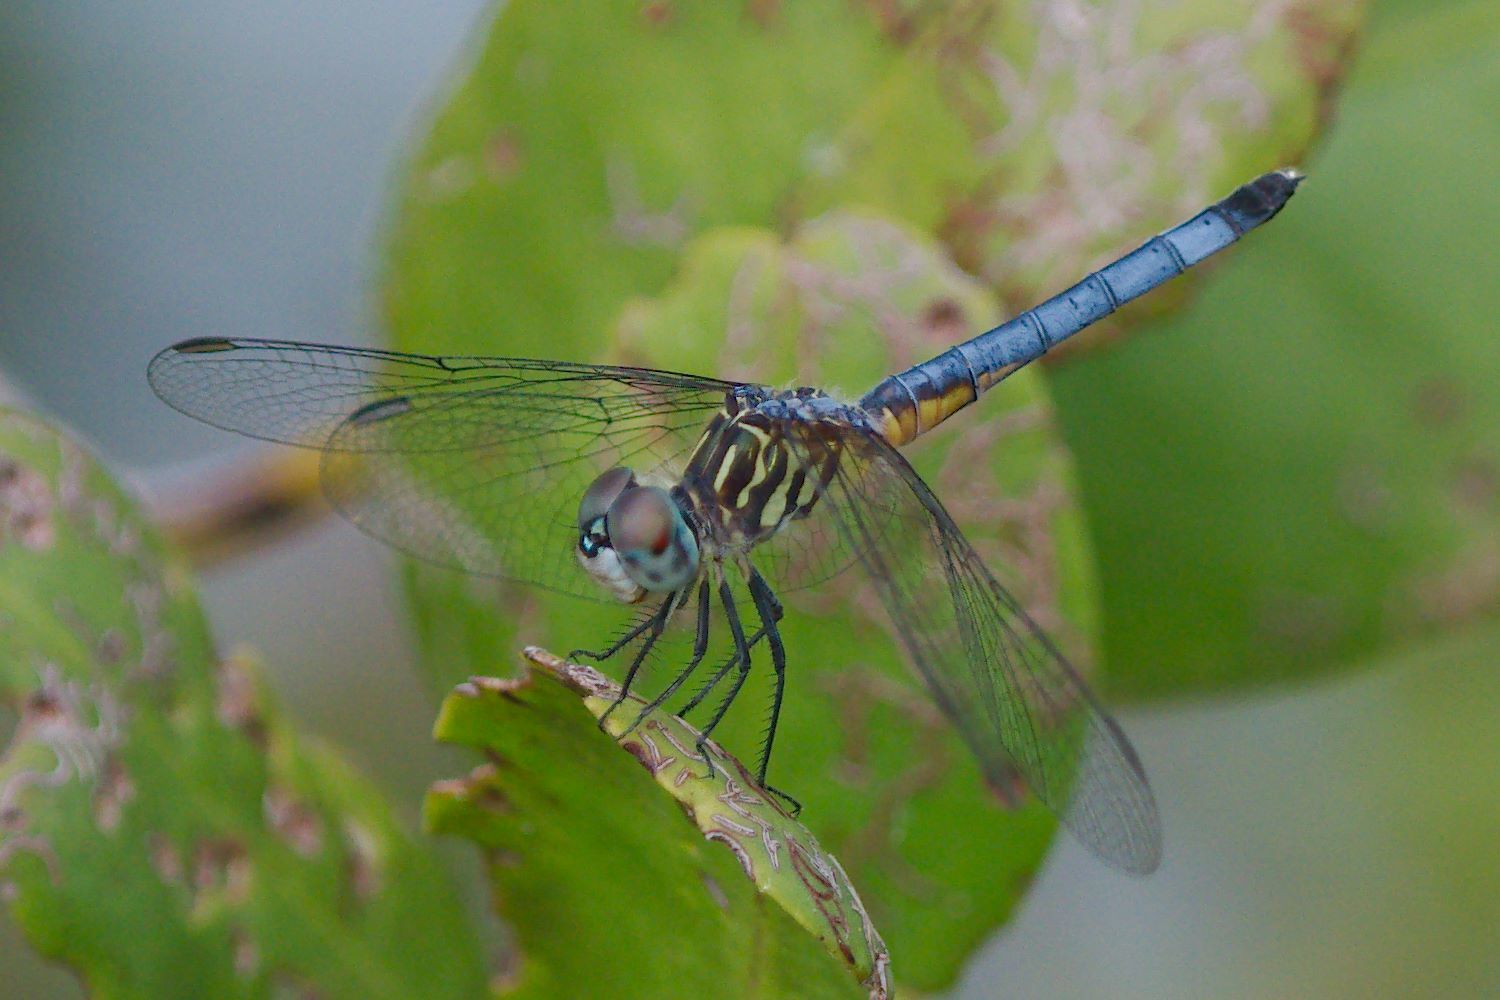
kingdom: Animalia
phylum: Arthropoda
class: Insecta
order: Odonata
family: Libellulidae
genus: Pachydiplax
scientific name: Pachydiplax longipennis
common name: Blue dasher
